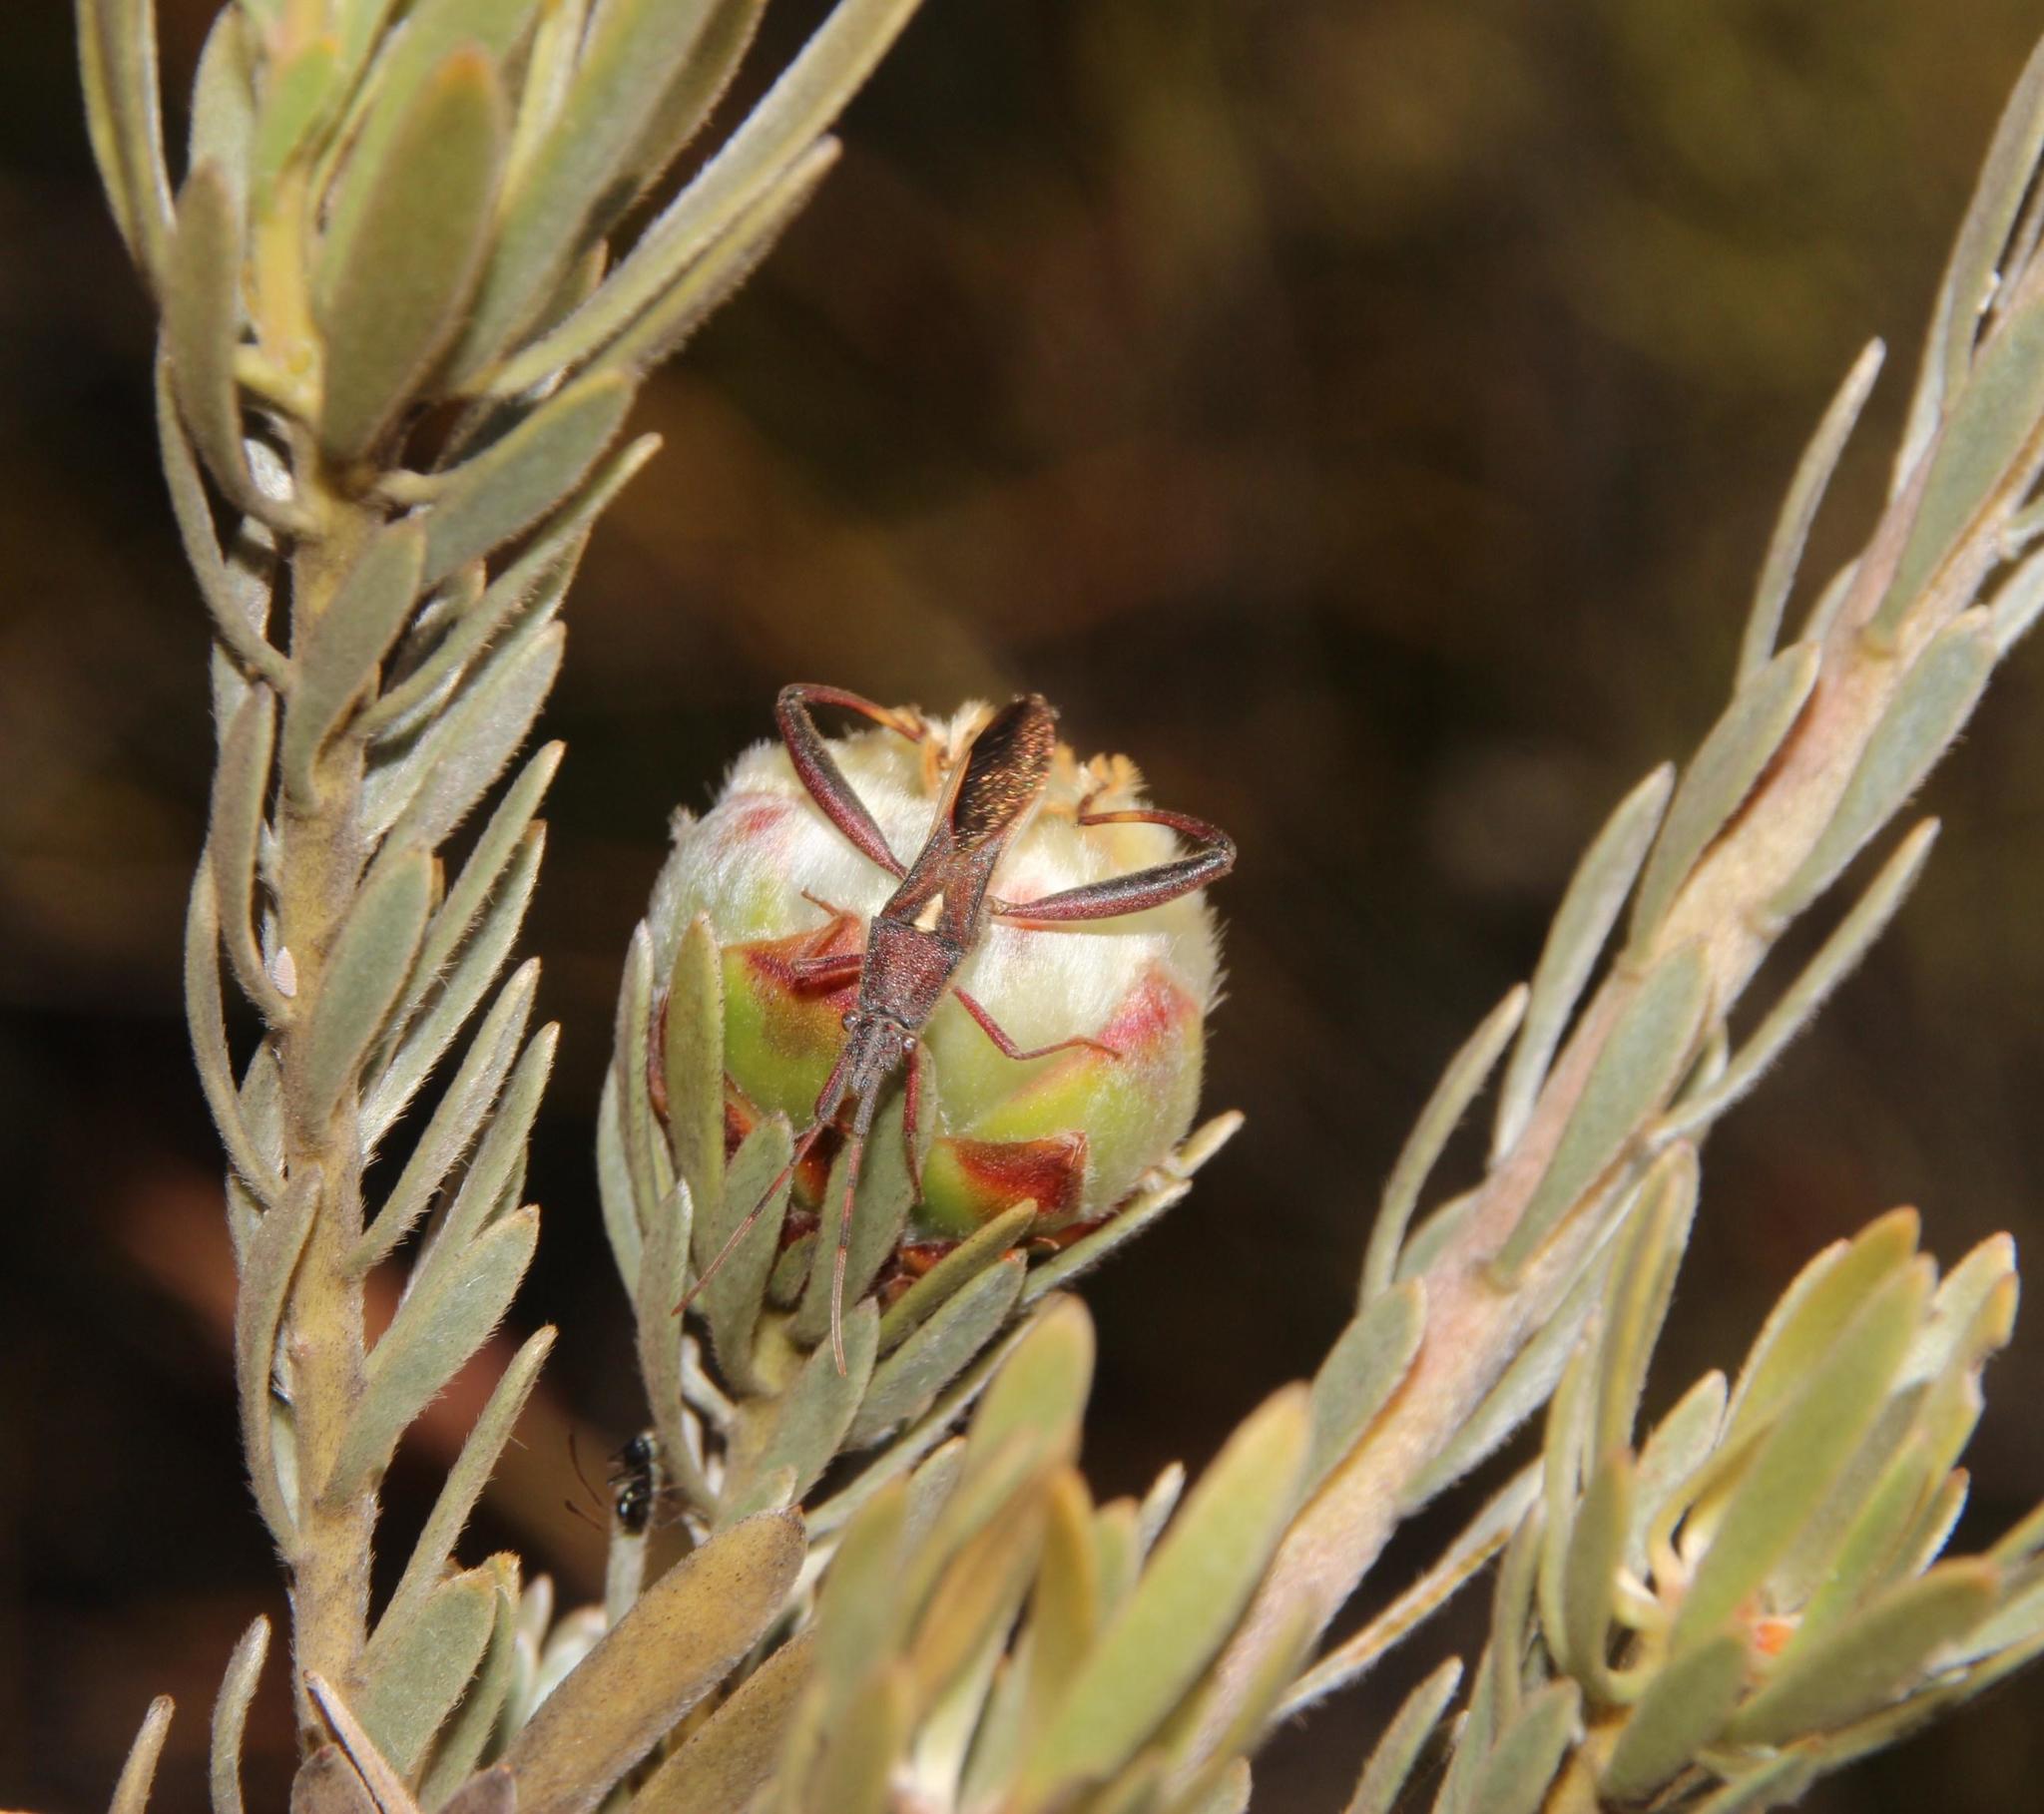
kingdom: Animalia
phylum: Arthropoda
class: Insecta
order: Hemiptera
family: Alydidae
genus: Mirperus
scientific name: Mirperus jaculus
